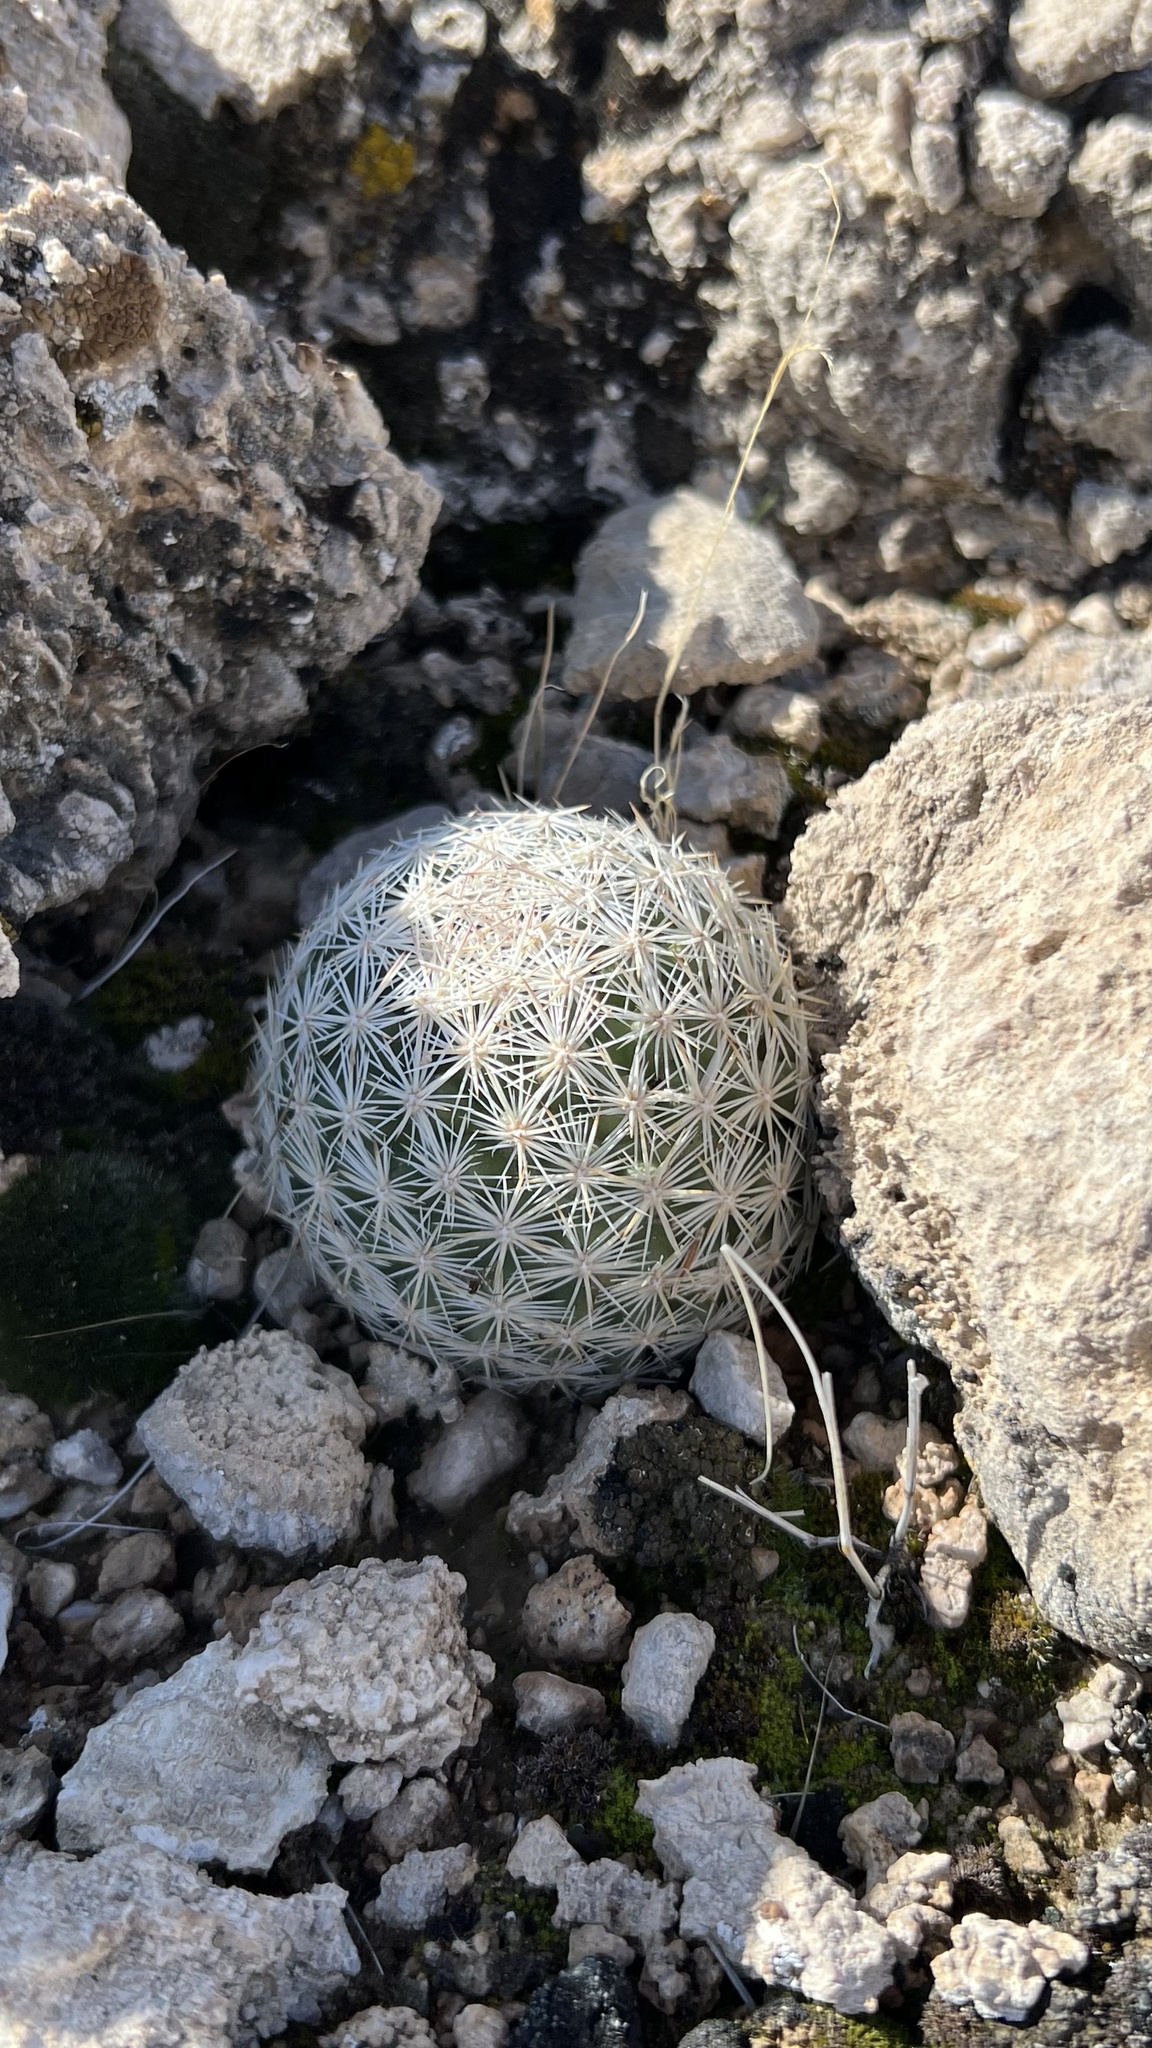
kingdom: Plantae
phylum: Tracheophyta
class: Magnoliopsida
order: Caryophyllales
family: Cactaceae
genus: Pelecyphora
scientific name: Pelecyphora dasyacantha
